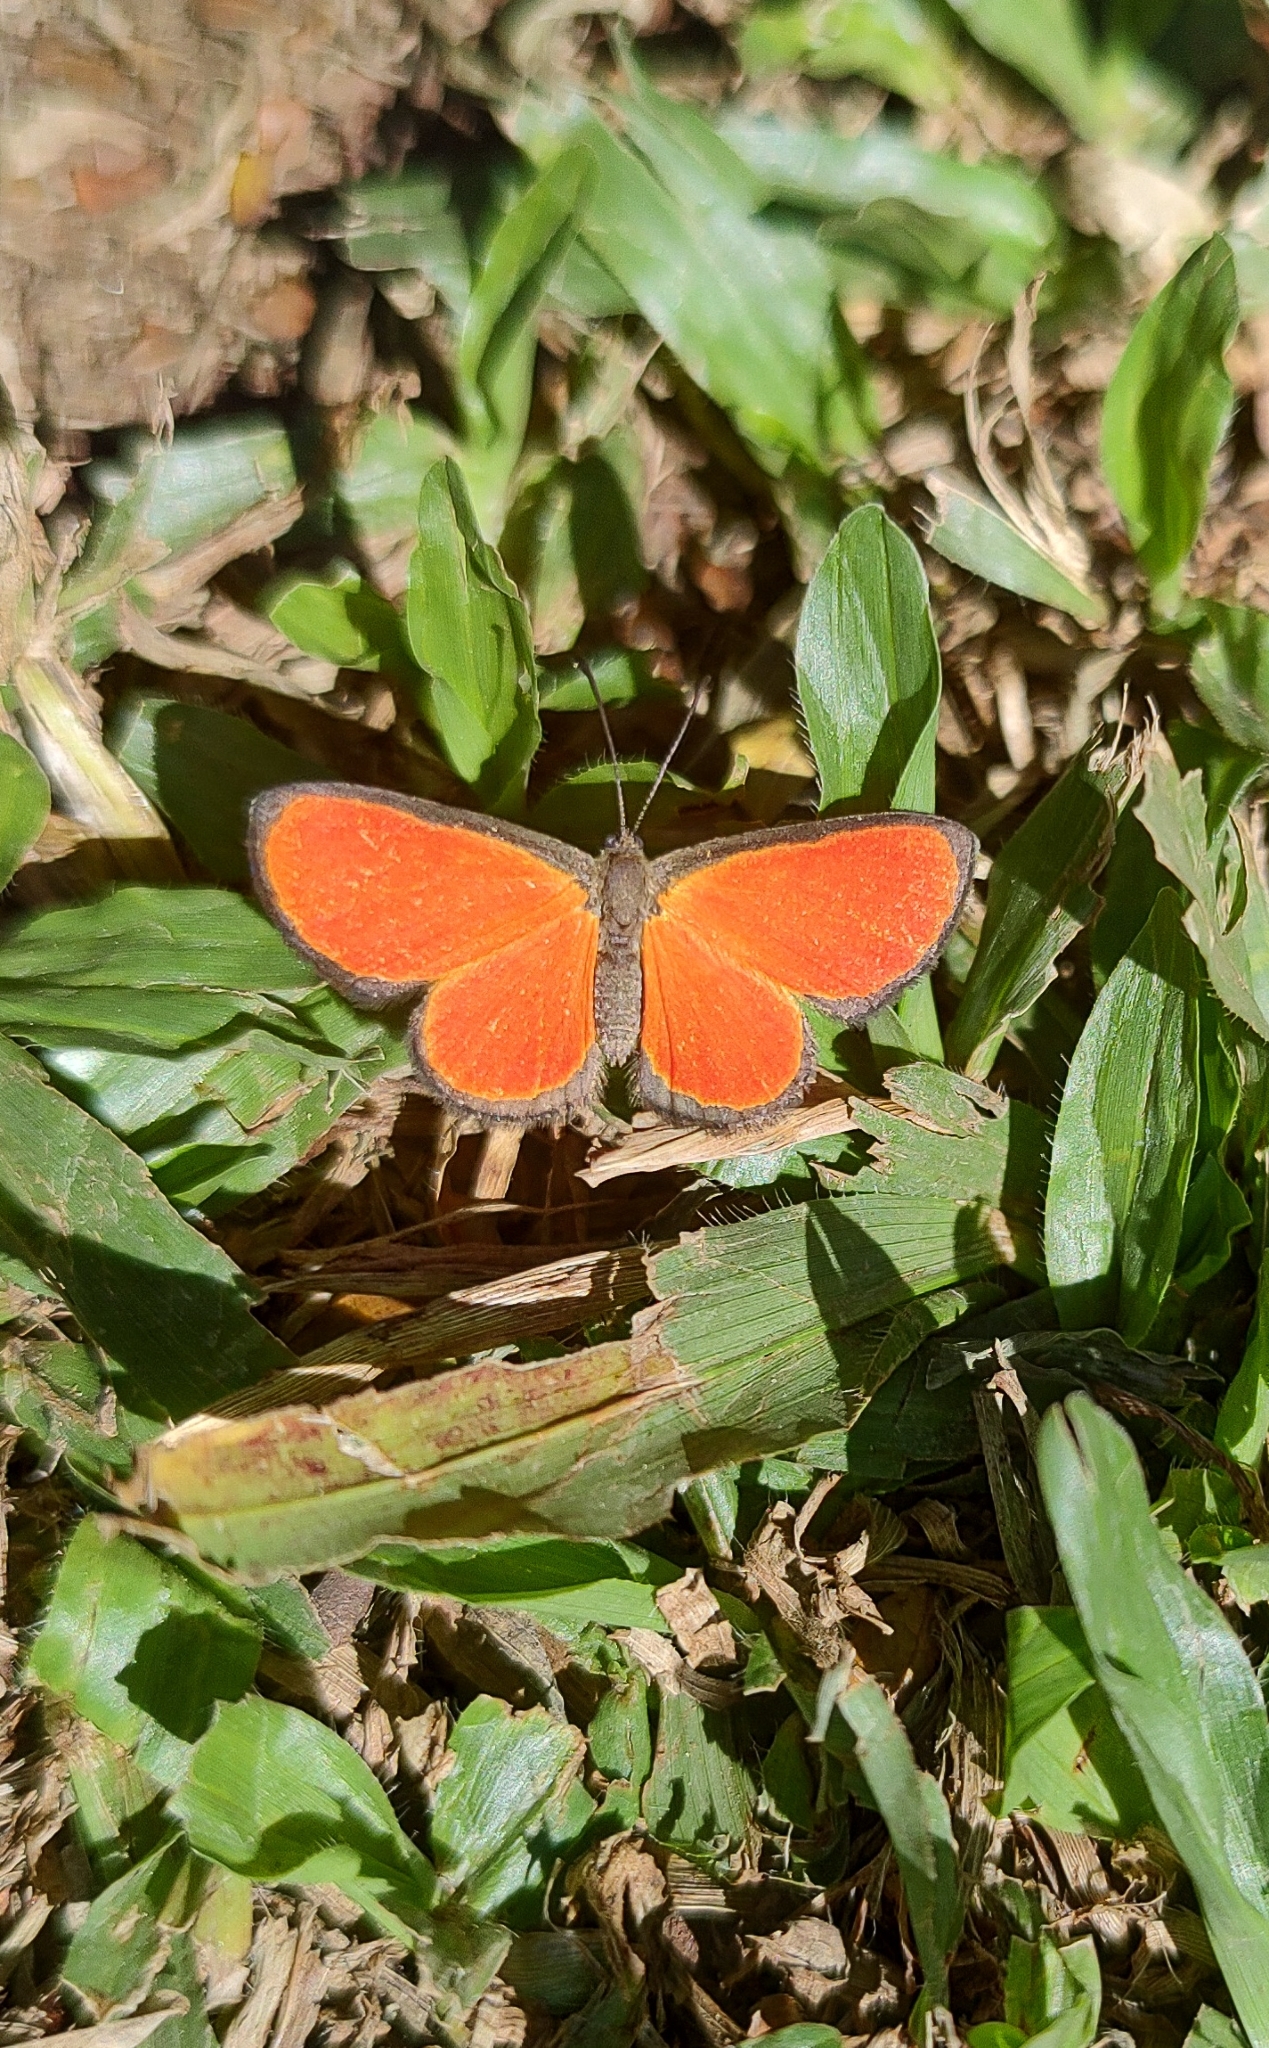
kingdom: Animalia
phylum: Arthropoda
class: Insecta
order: Lepidoptera
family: Lycaenidae
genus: Mesene
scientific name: Mesene pyrippe
